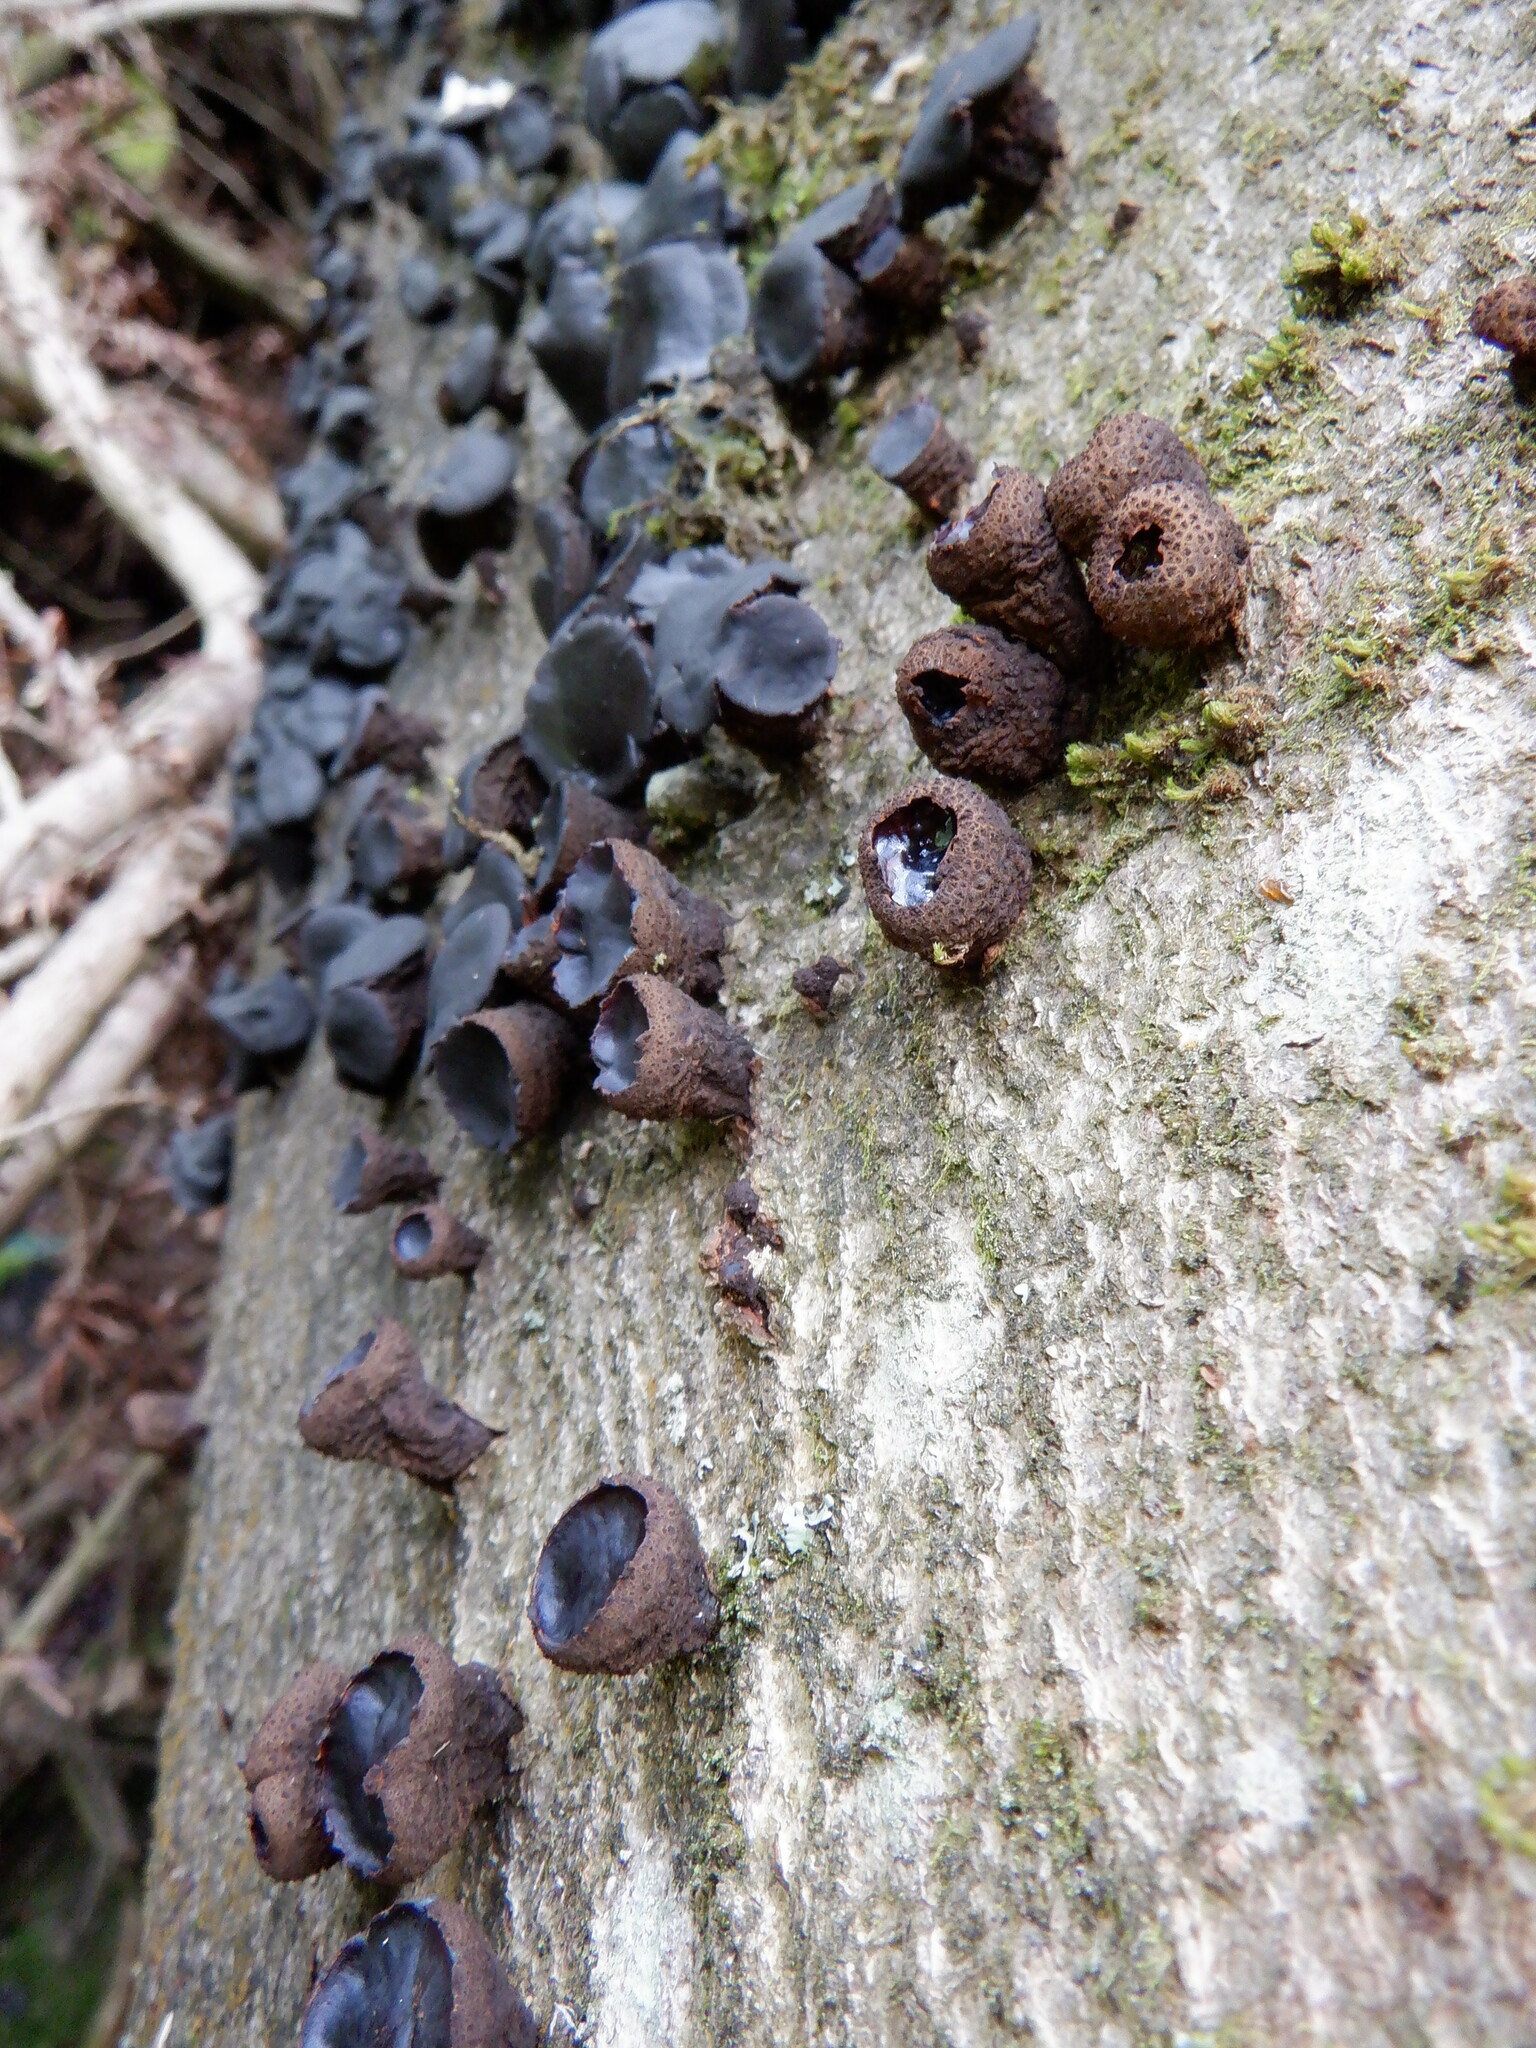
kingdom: Fungi
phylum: Ascomycota
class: Leotiomycetes
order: Phacidiales
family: Phacidiaceae
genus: Bulgaria
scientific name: Bulgaria inquinans
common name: Black bulgar
